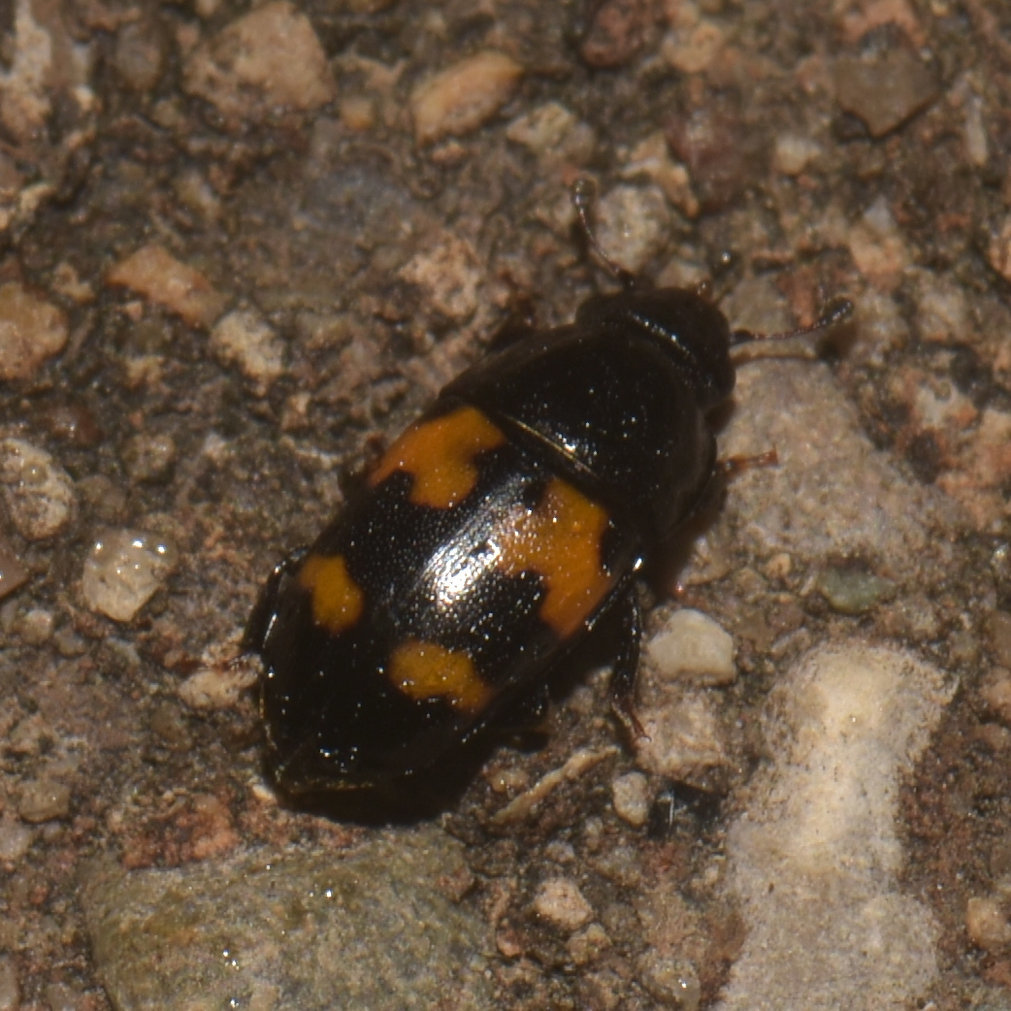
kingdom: Animalia
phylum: Arthropoda
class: Insecta
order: Coleoptera
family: Nitidulidae
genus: Glischrochilus
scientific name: Glischrochilus fasciatus
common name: Picnic beetle
